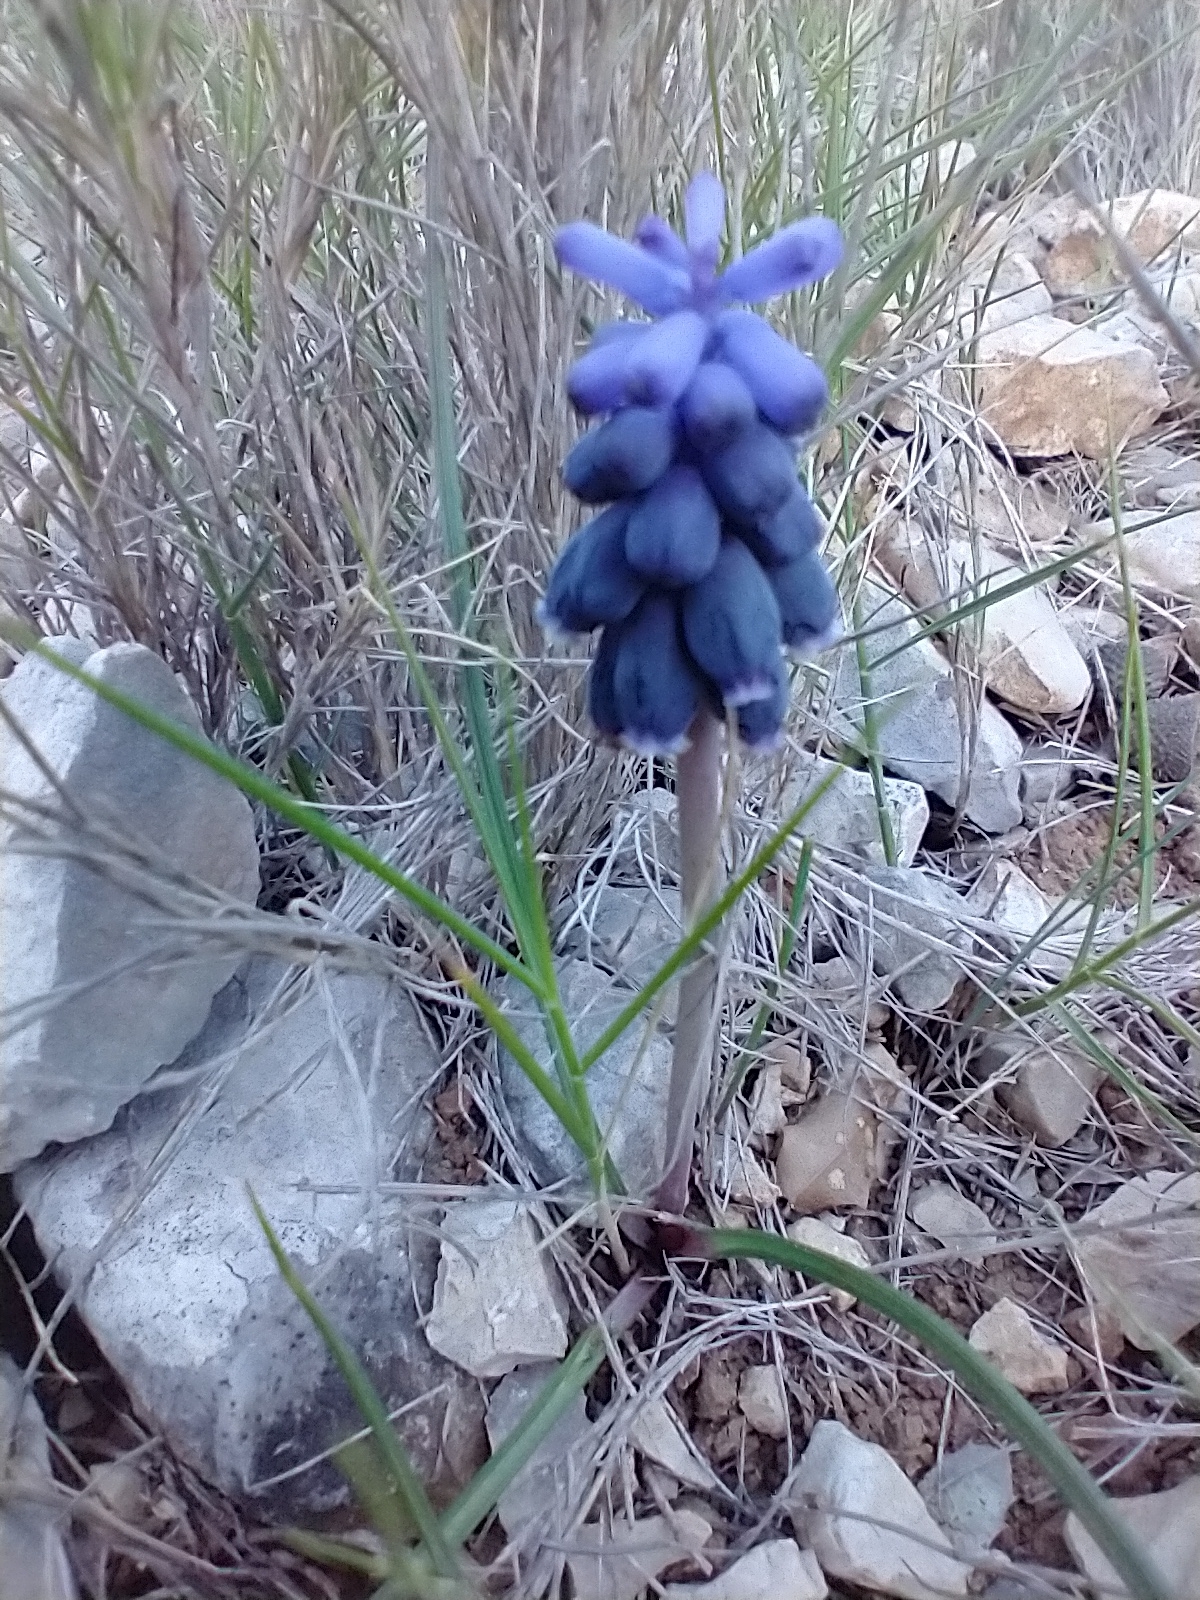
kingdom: Plantae
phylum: Tracheophyta
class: Liliopsida
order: Asparagales
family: Asparagaceae
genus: Muscari
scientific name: Muscari neglectum
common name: Grape-hyacinth
